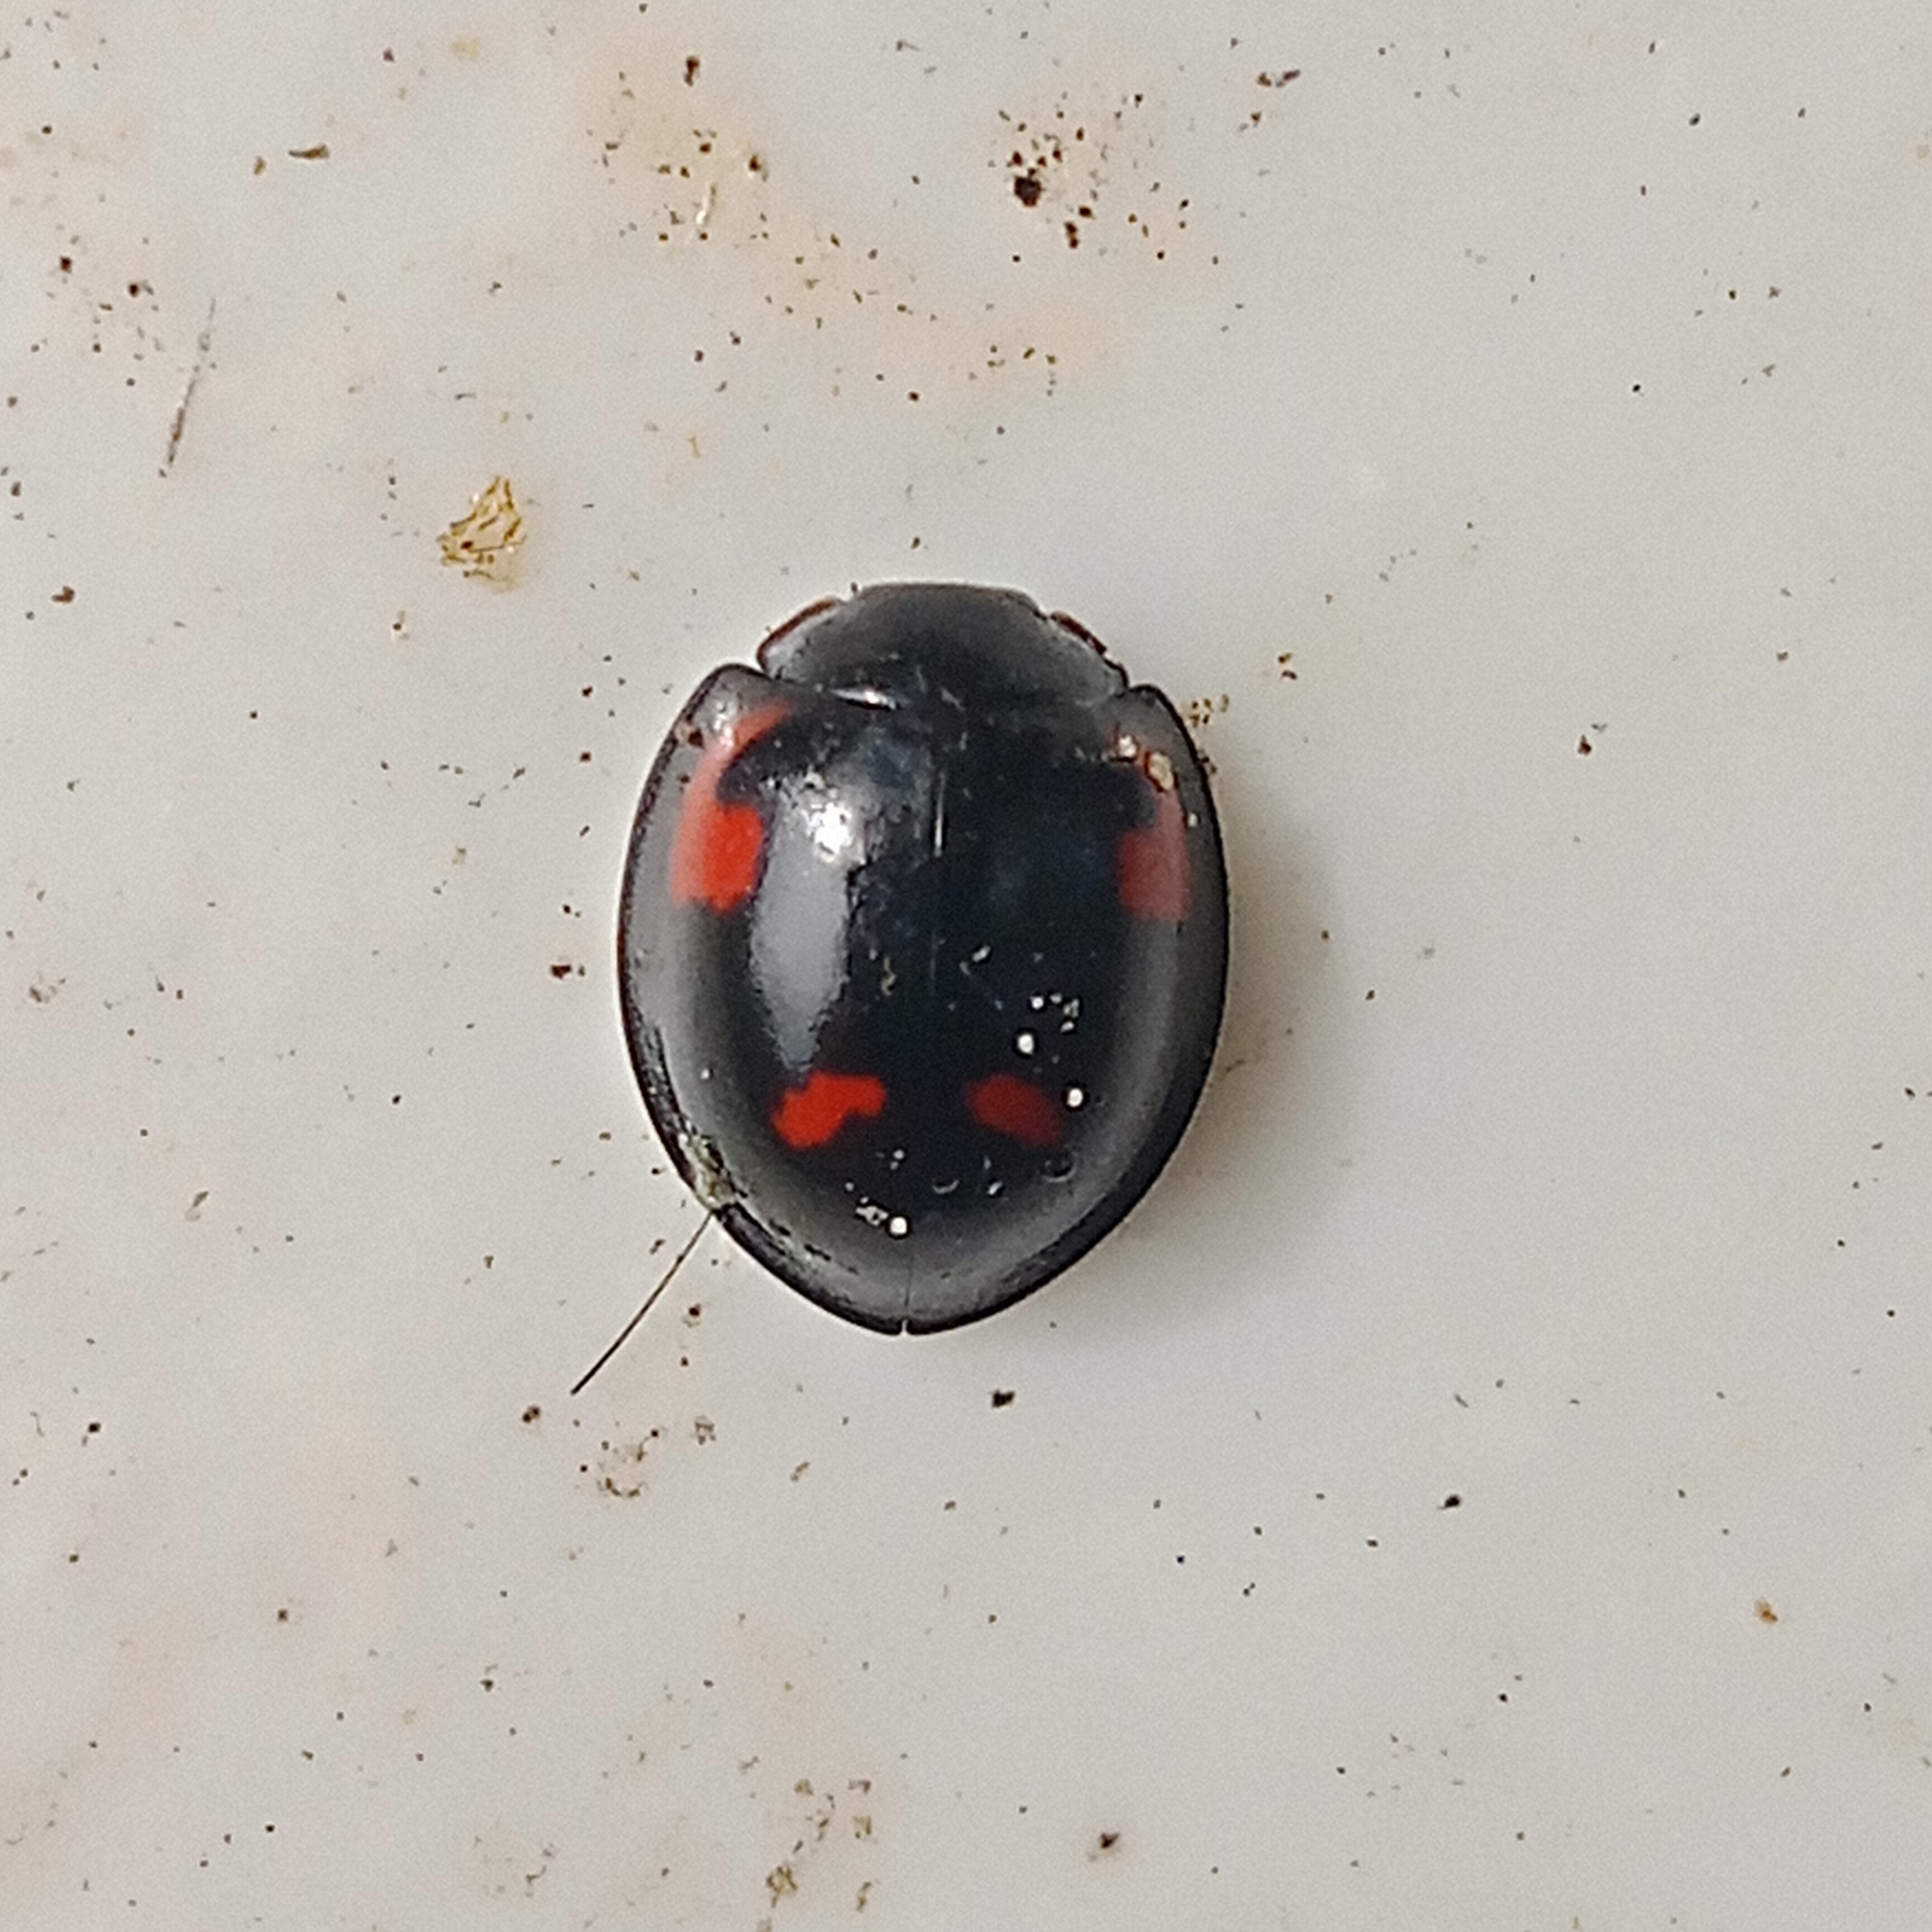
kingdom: Animalia
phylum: Arthropoda
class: Insecta
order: Coleoptera
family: Coccinellidae
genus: Brumus
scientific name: Brumus quadripustulatus
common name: Ladybird beetle
